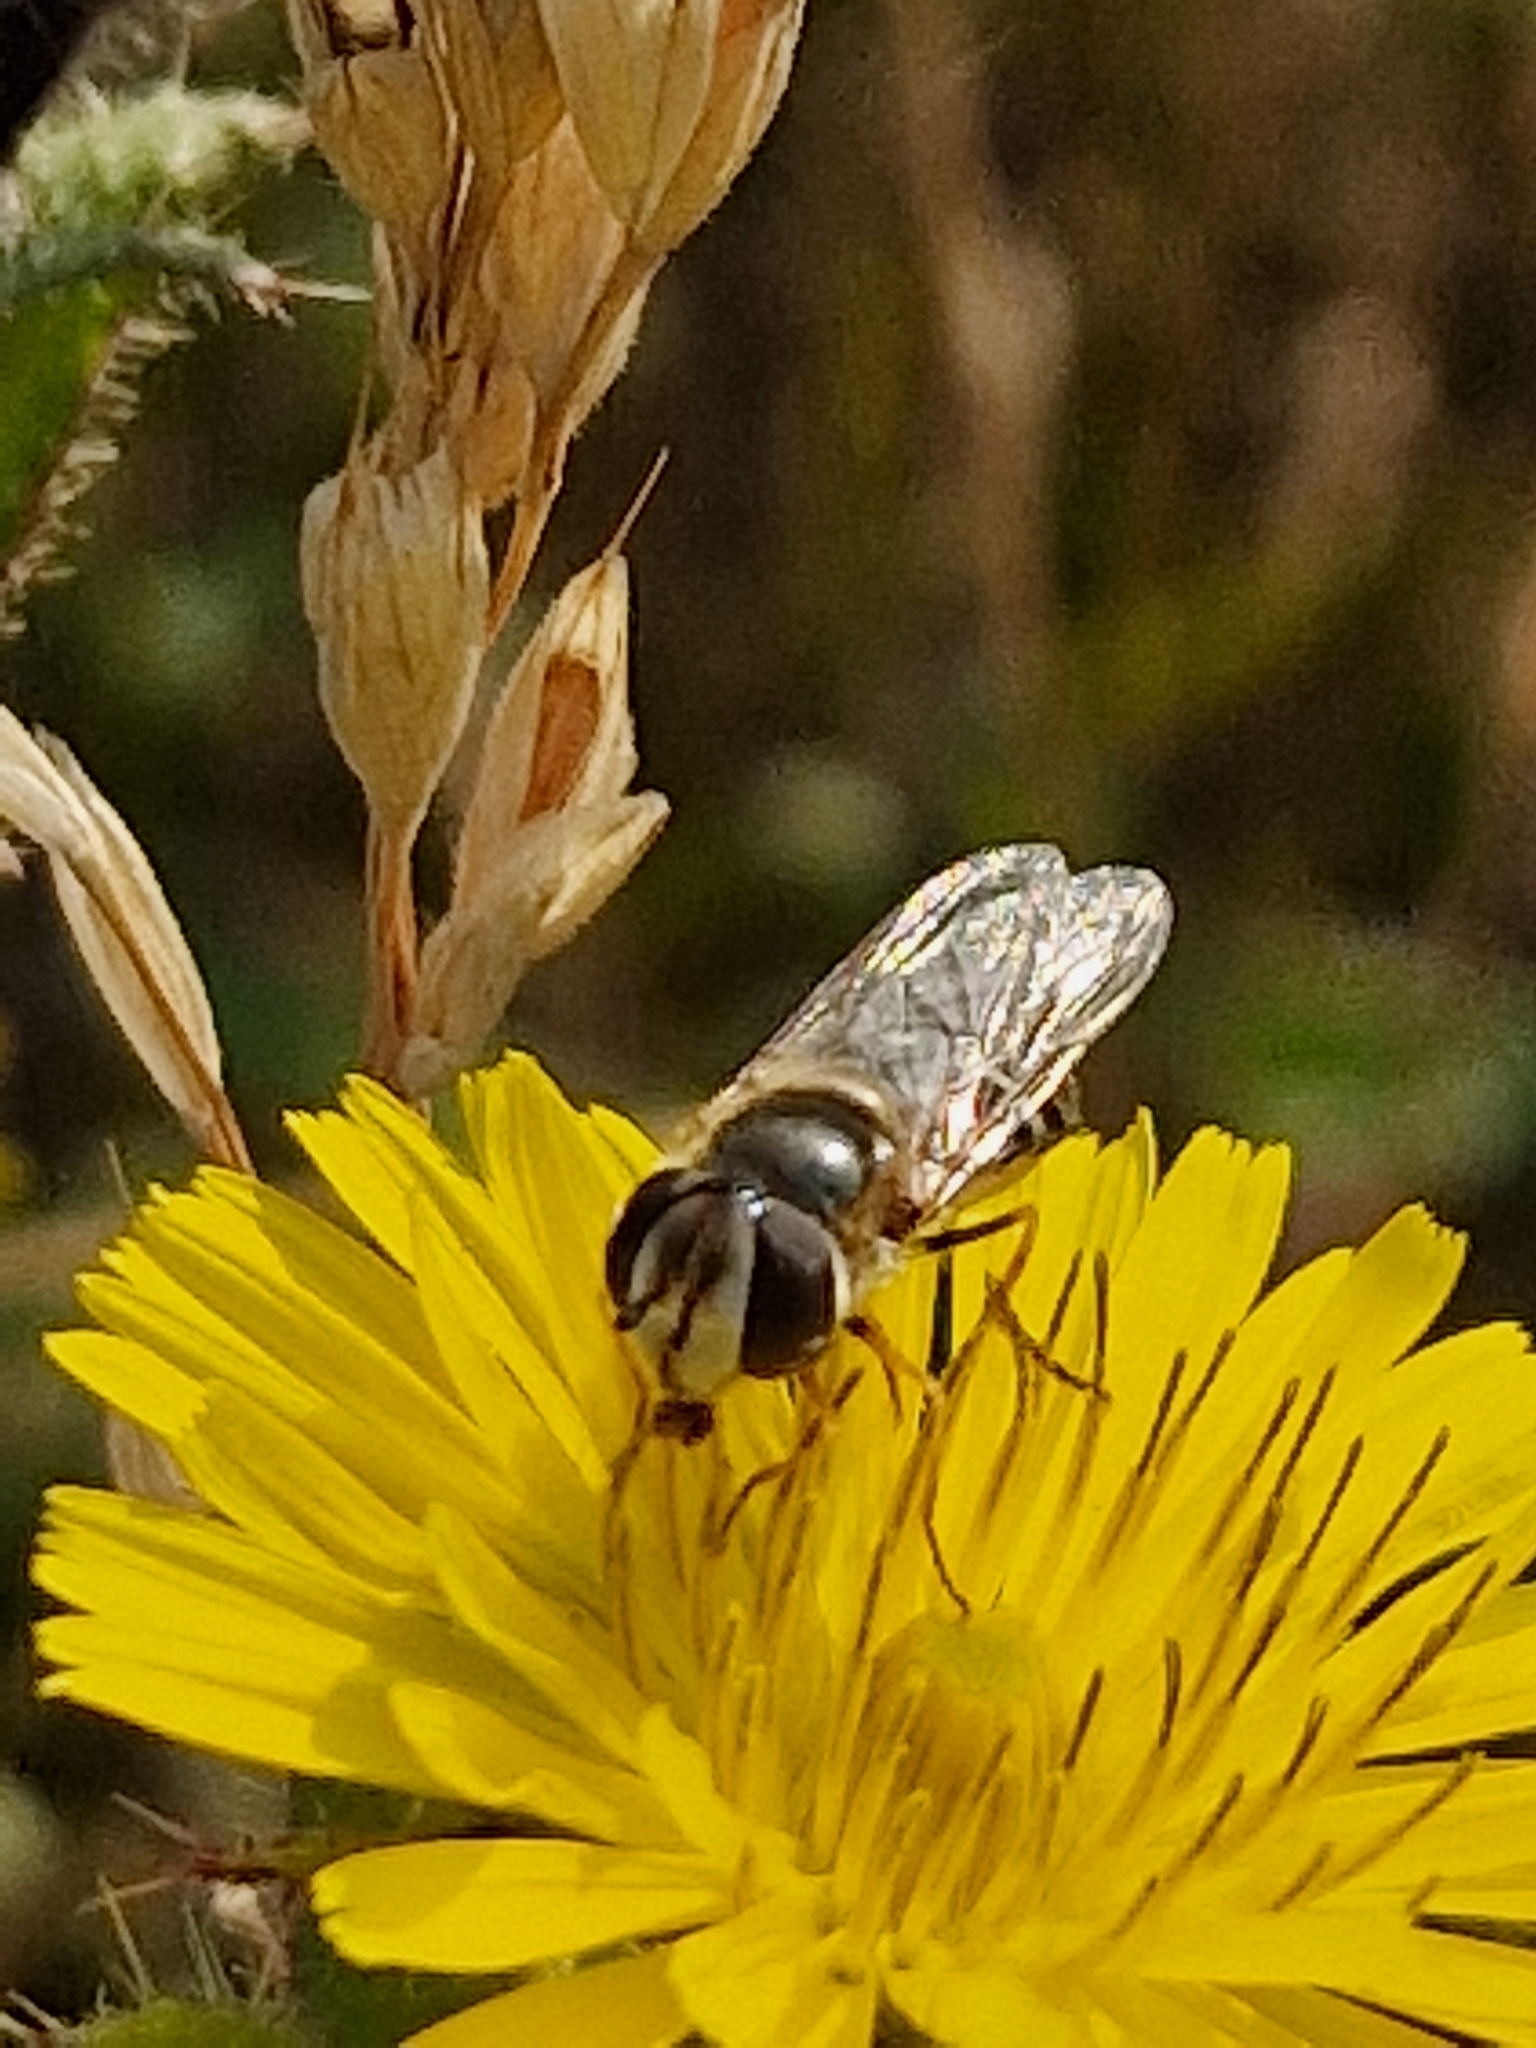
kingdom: Animalia
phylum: Arthropoda
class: Insecta
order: Diptera
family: Syrphidae
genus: Scaeva
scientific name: Scaeva pyrastri
